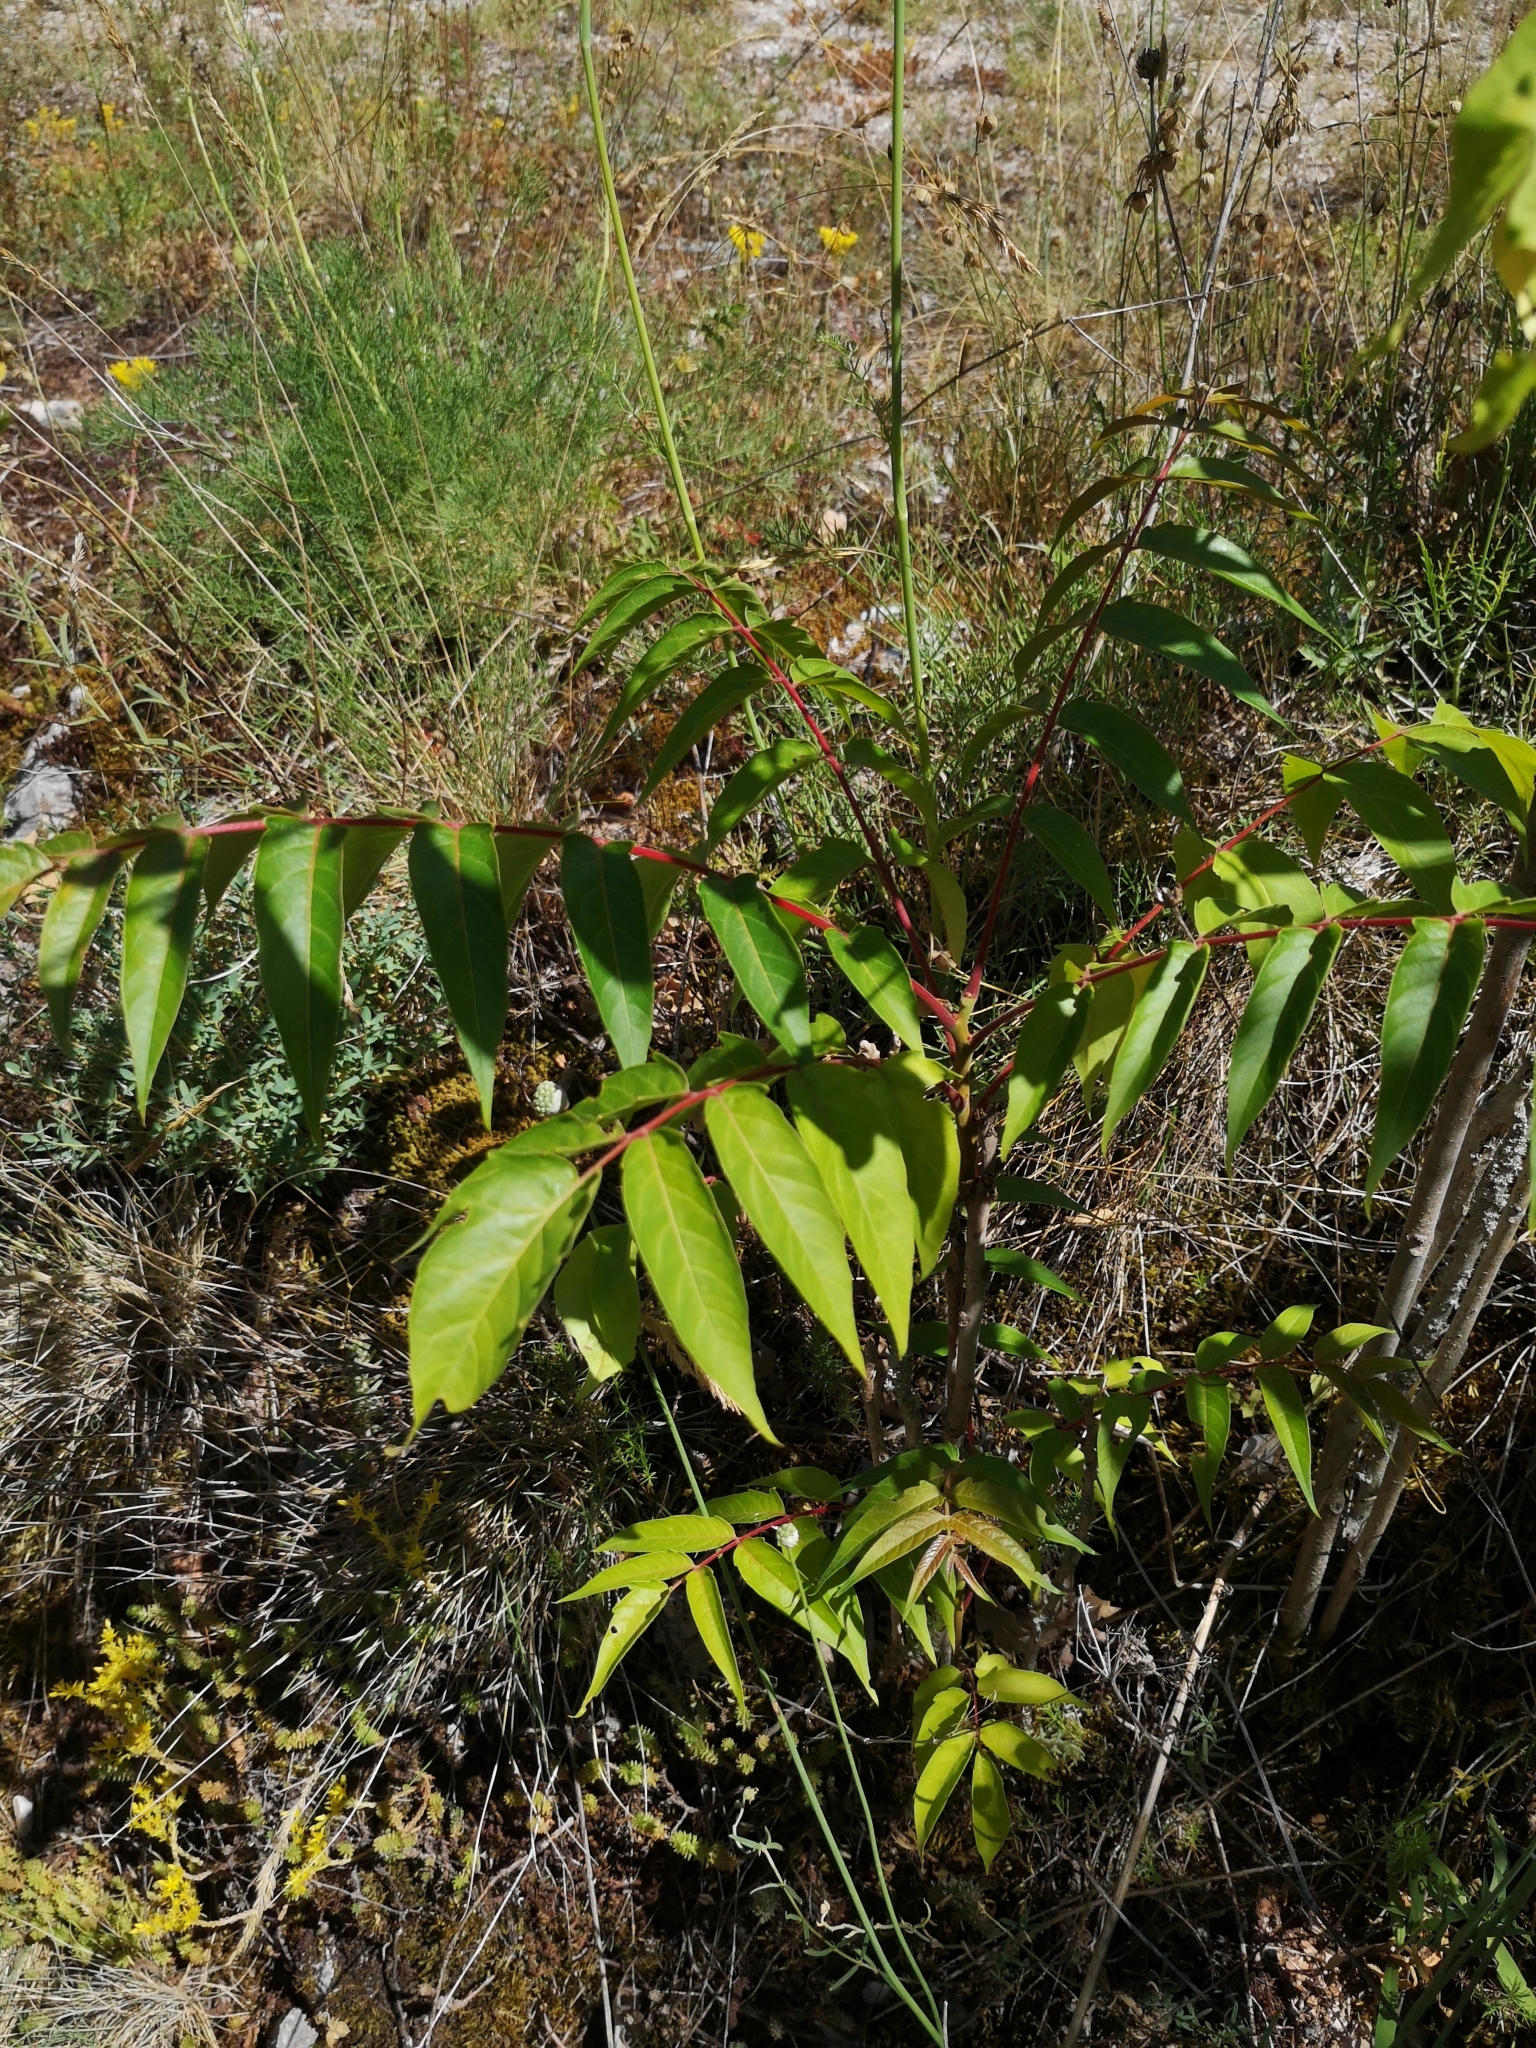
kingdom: Plantae
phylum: Tracheophyta
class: Magnoliopsida
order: Sapindales
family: Simaroubaceae
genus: Ailanthus
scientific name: Ailanthus altissima
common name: Tree-of-heaven
